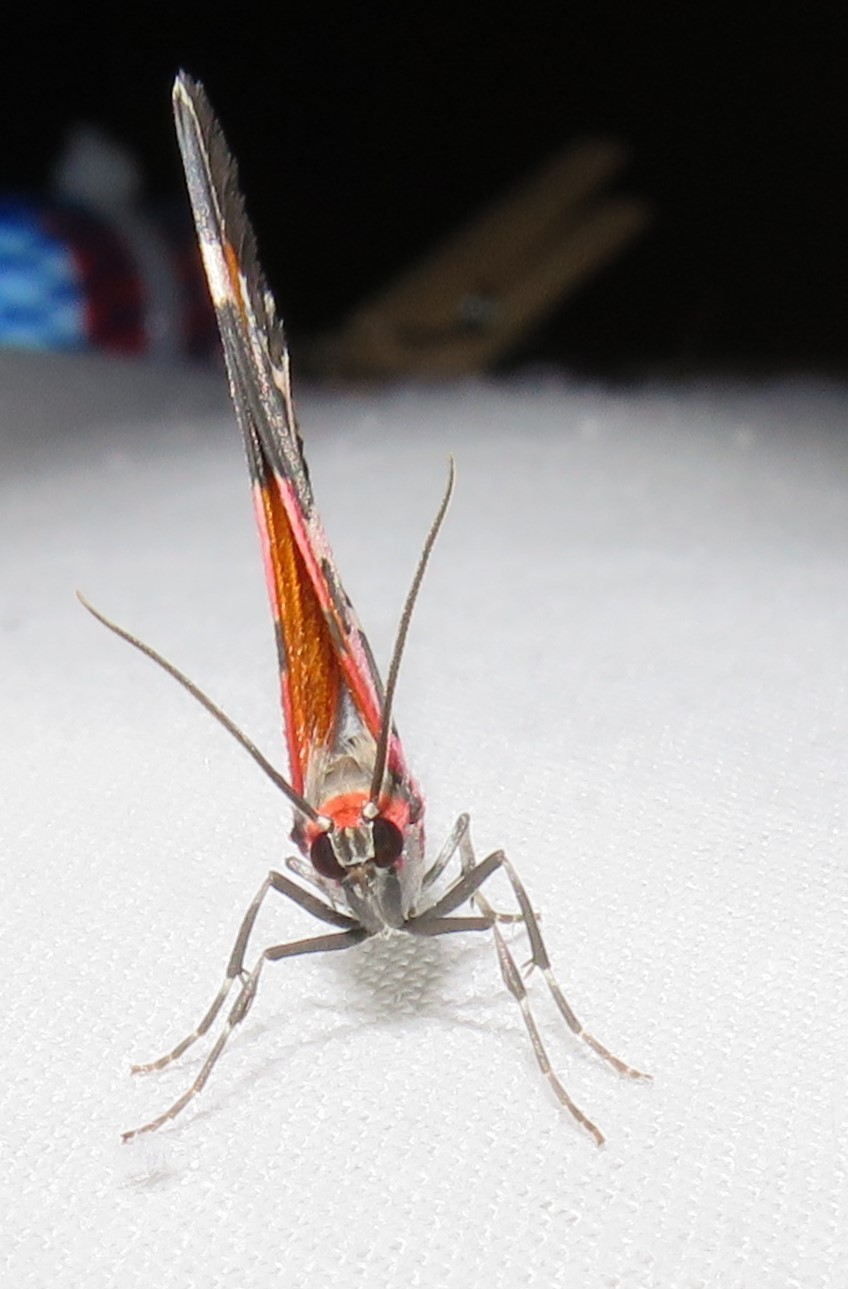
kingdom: Animalia
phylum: Arthropoda
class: Insecta
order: Lepidoptera
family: Geometridae
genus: Stamnodes
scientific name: Stamnodes fervefactaria
